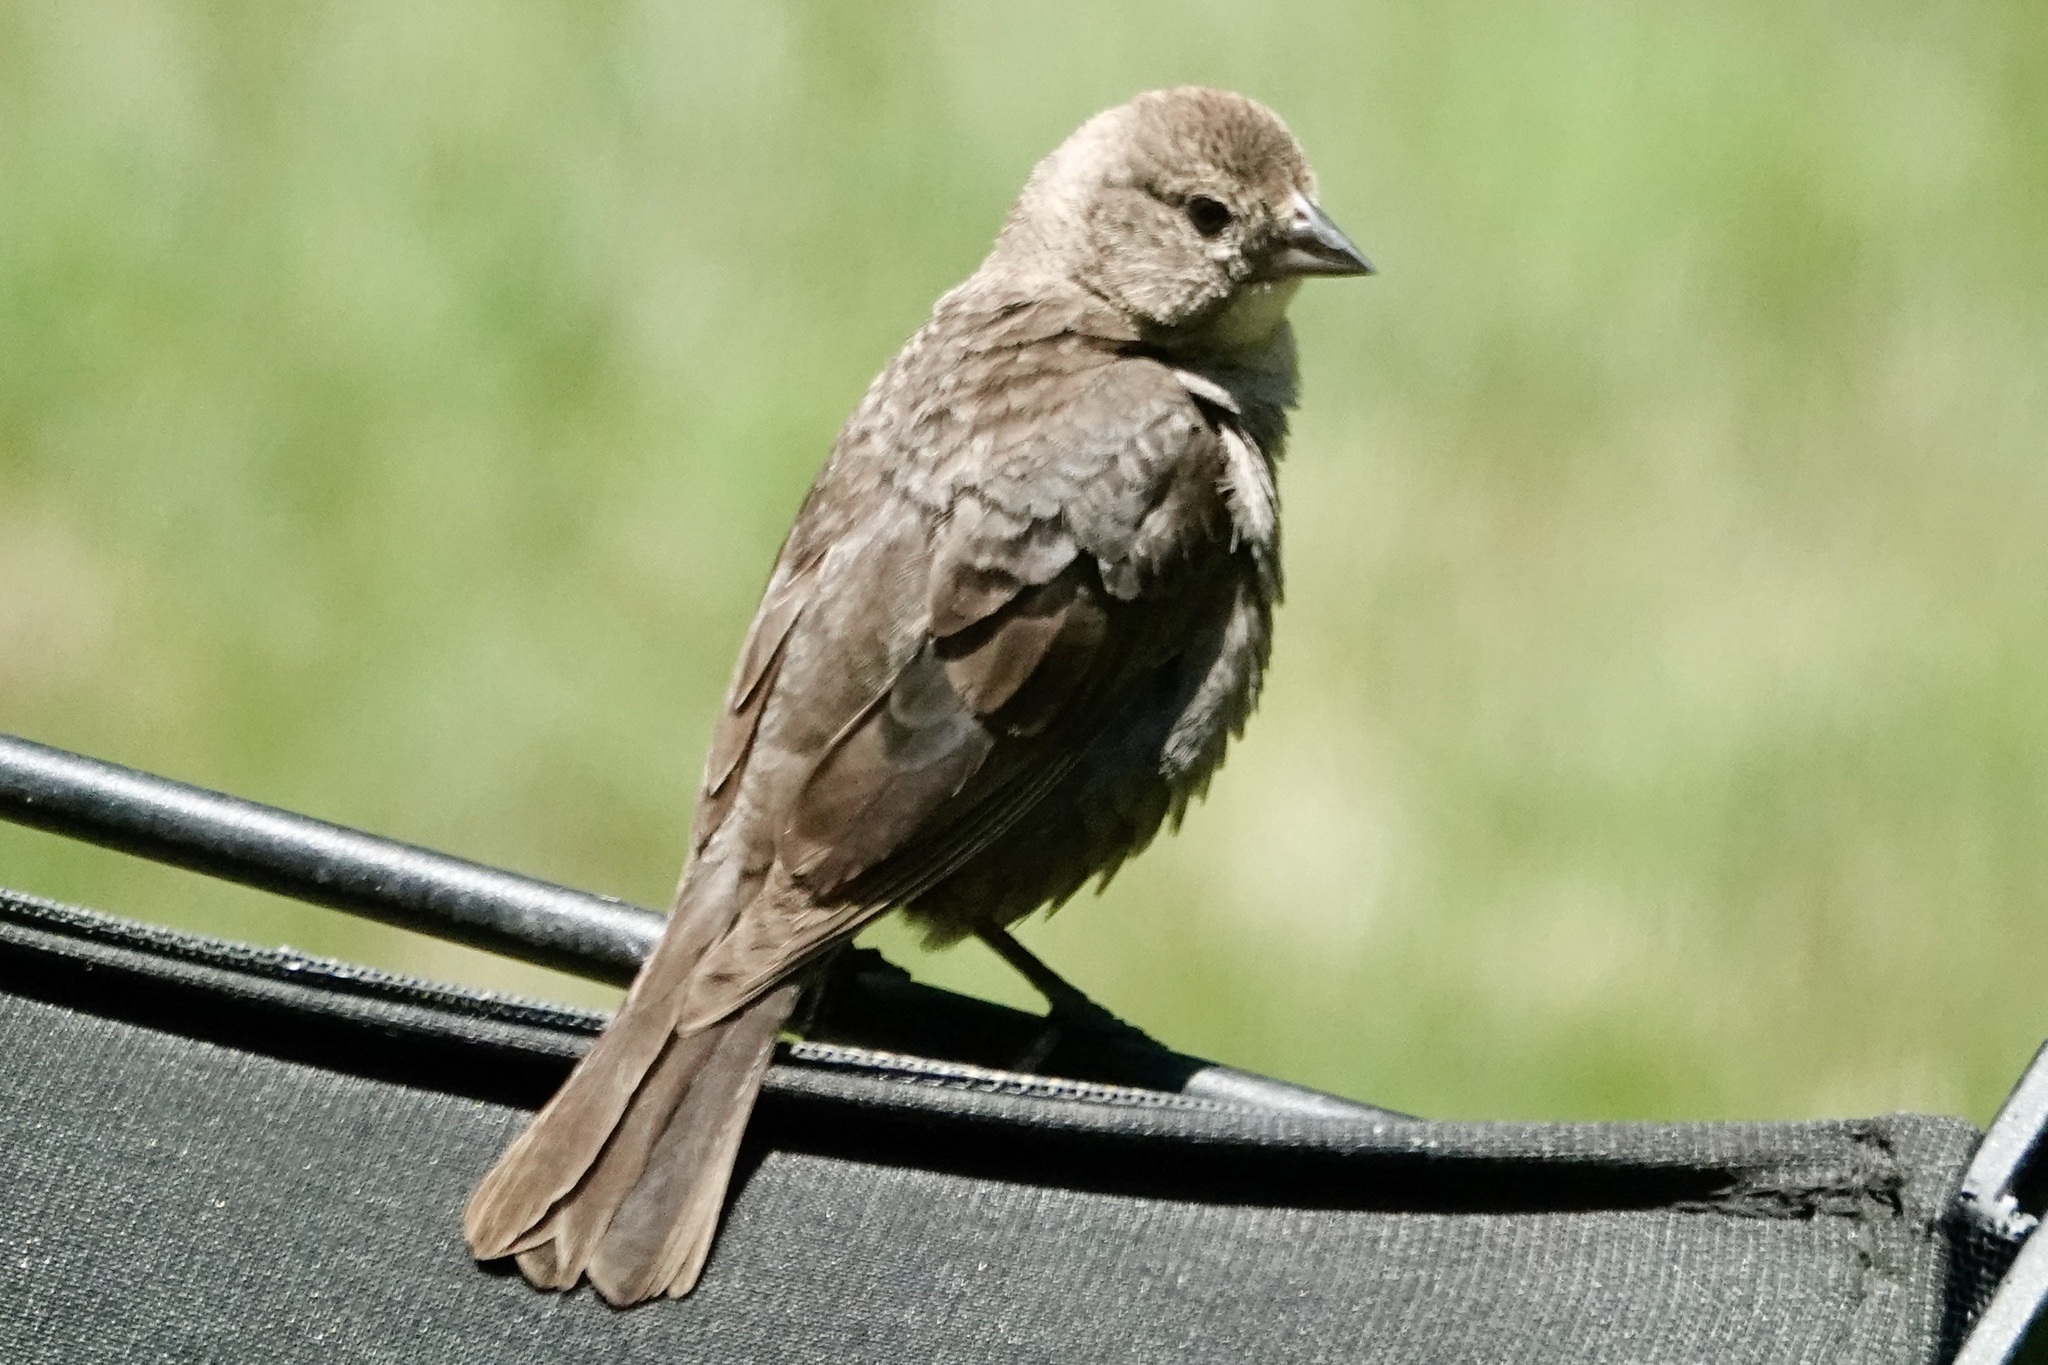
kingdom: Animalia
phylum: Chordata
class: Aves
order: Passeriformes
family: Icteridae
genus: Molothrus
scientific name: Molothrus ater
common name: Brown-headed cowbird
